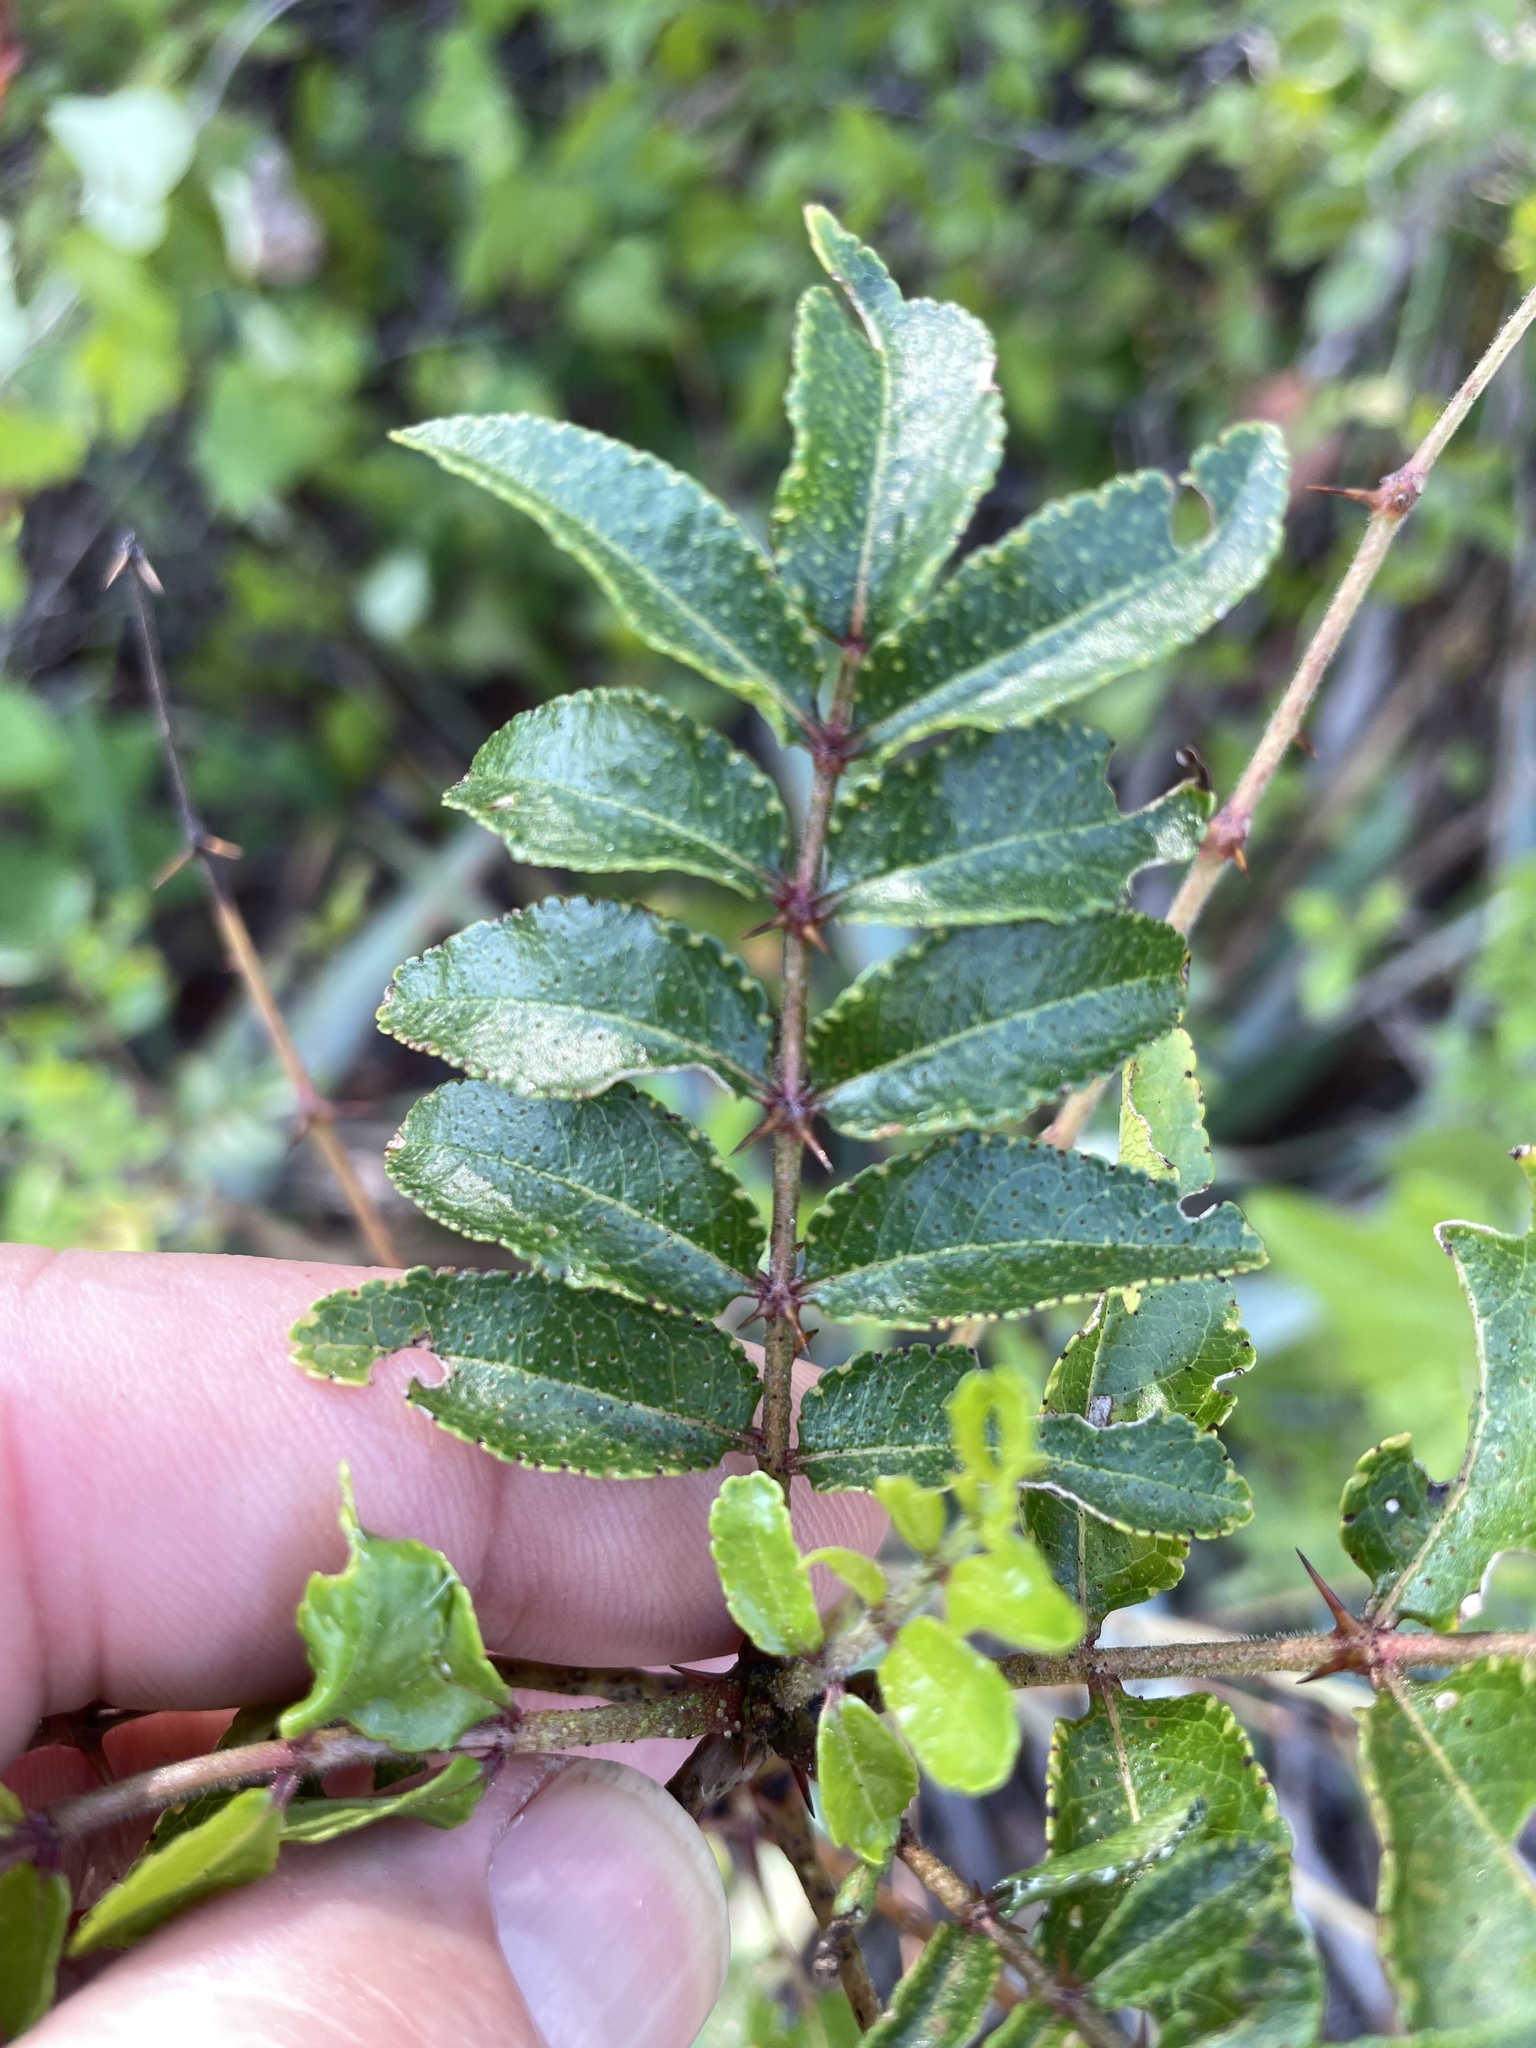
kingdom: Plantae
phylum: Tracheophyta
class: Magnoliopsida
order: Sapindales
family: Rutaceae
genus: Zanthoxylum
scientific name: Zanthoxylum clava-herculis
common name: Hercules'-club
